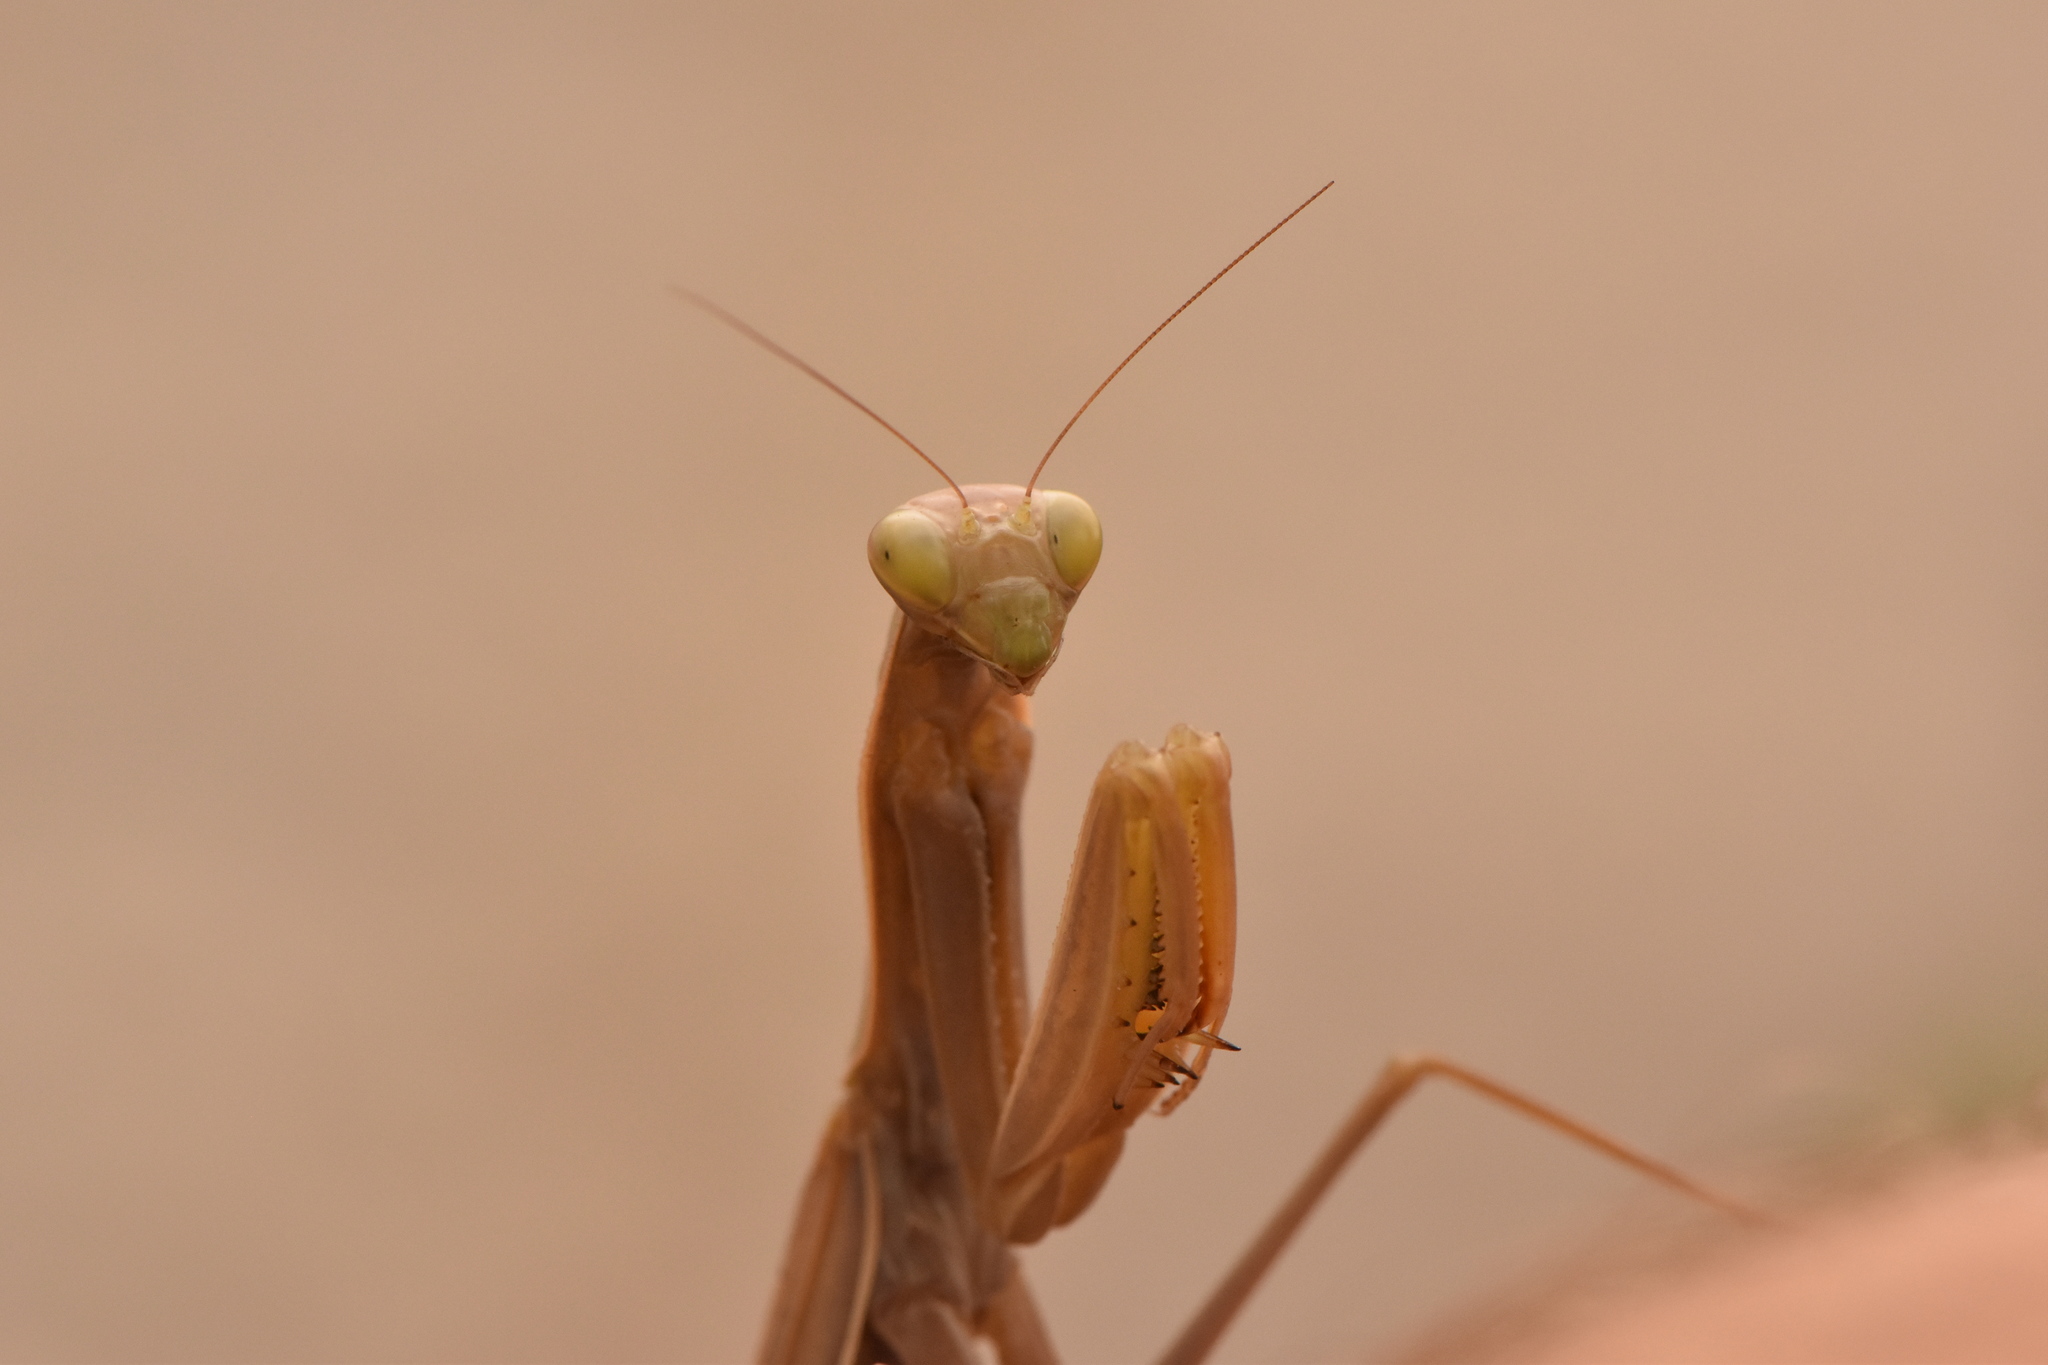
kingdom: Animalia
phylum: Arthropoda
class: Insecta
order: Mantodea
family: Mantidae
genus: Mantis
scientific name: Mantis religiosa
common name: Praying mantis
